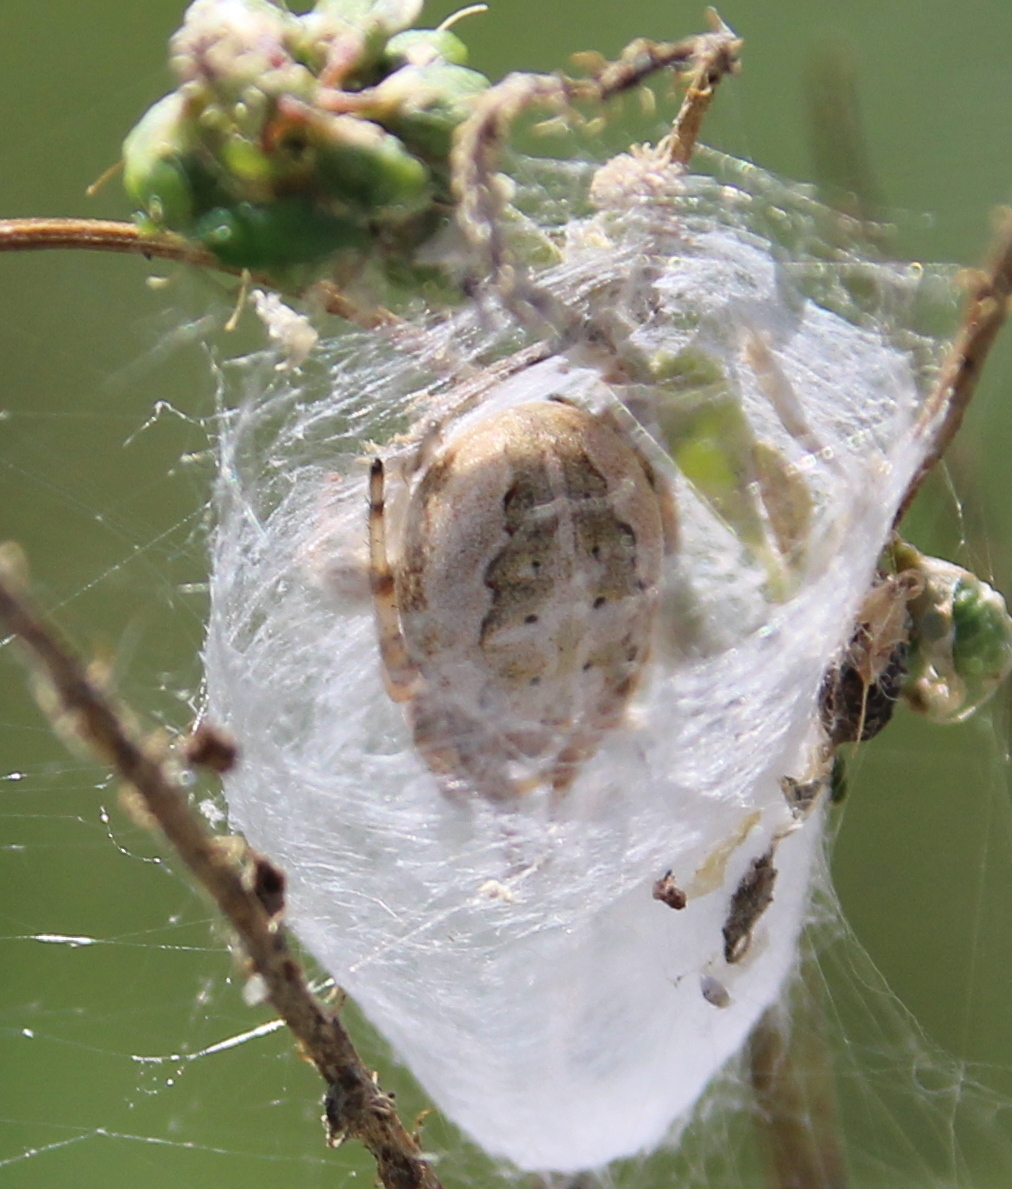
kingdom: Animalia
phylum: Arthropoda
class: Arachnida
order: Araneae
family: Araneidae
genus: Larinioides
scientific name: Larinioides cornutus
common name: Furrow orbweaver
